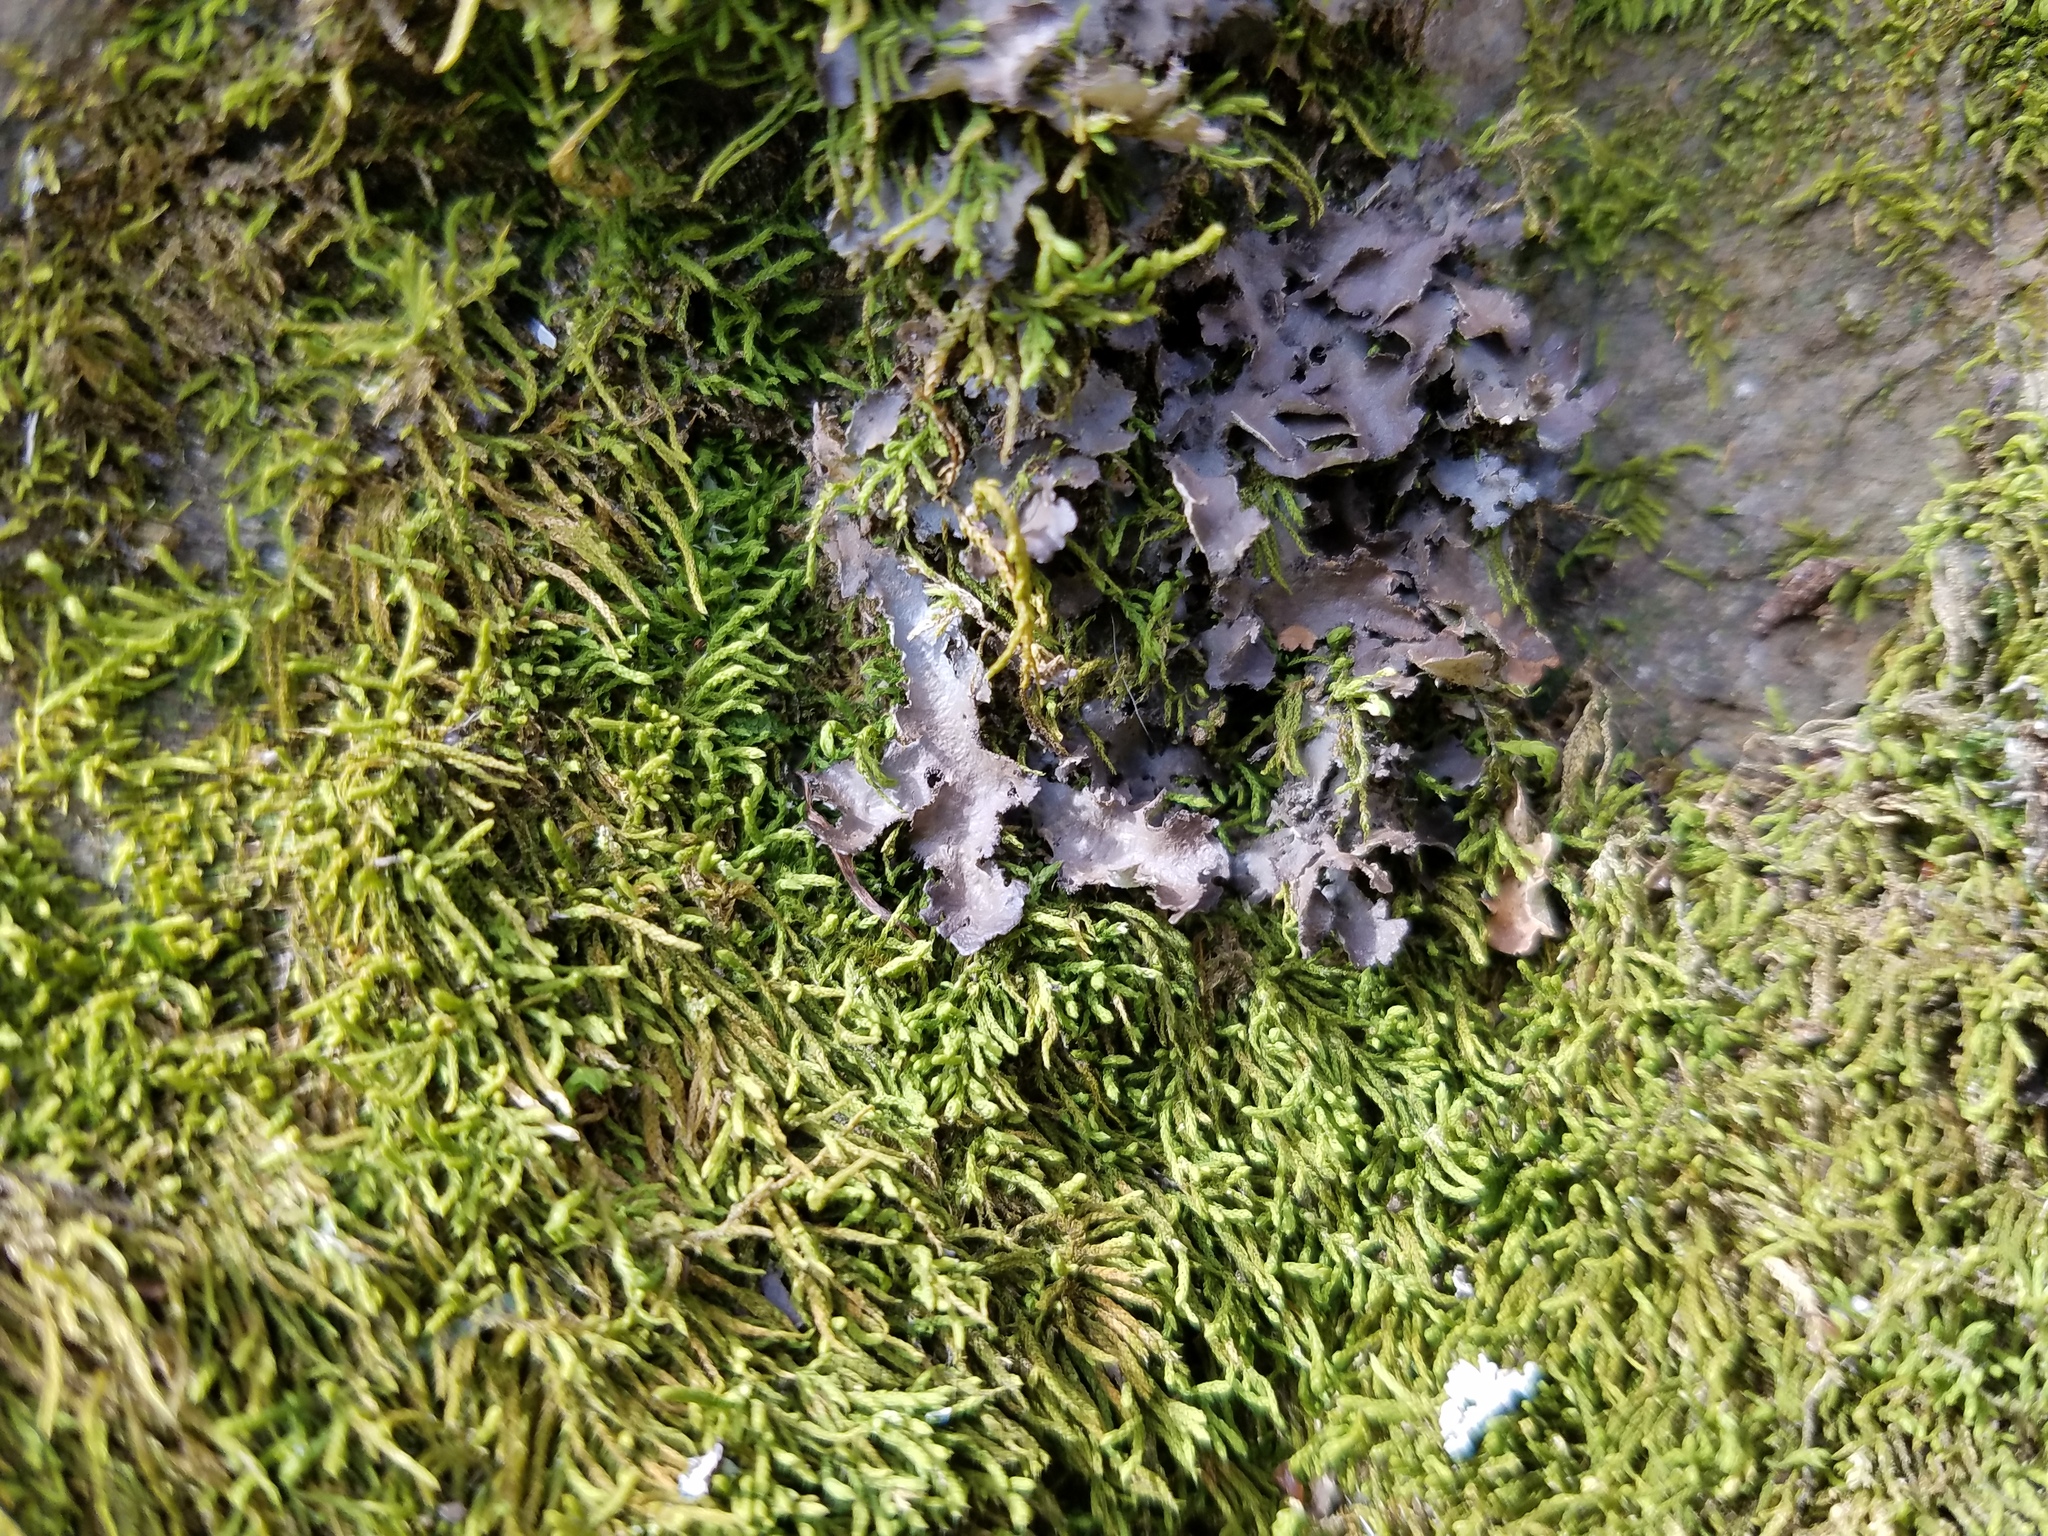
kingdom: Fungi
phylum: Ascomycota
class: Lecanoromycetes
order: Peltigerales
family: Nephromataceae
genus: Nephroma
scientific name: Nephroma helveticum
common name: Fringed kidney lichen
